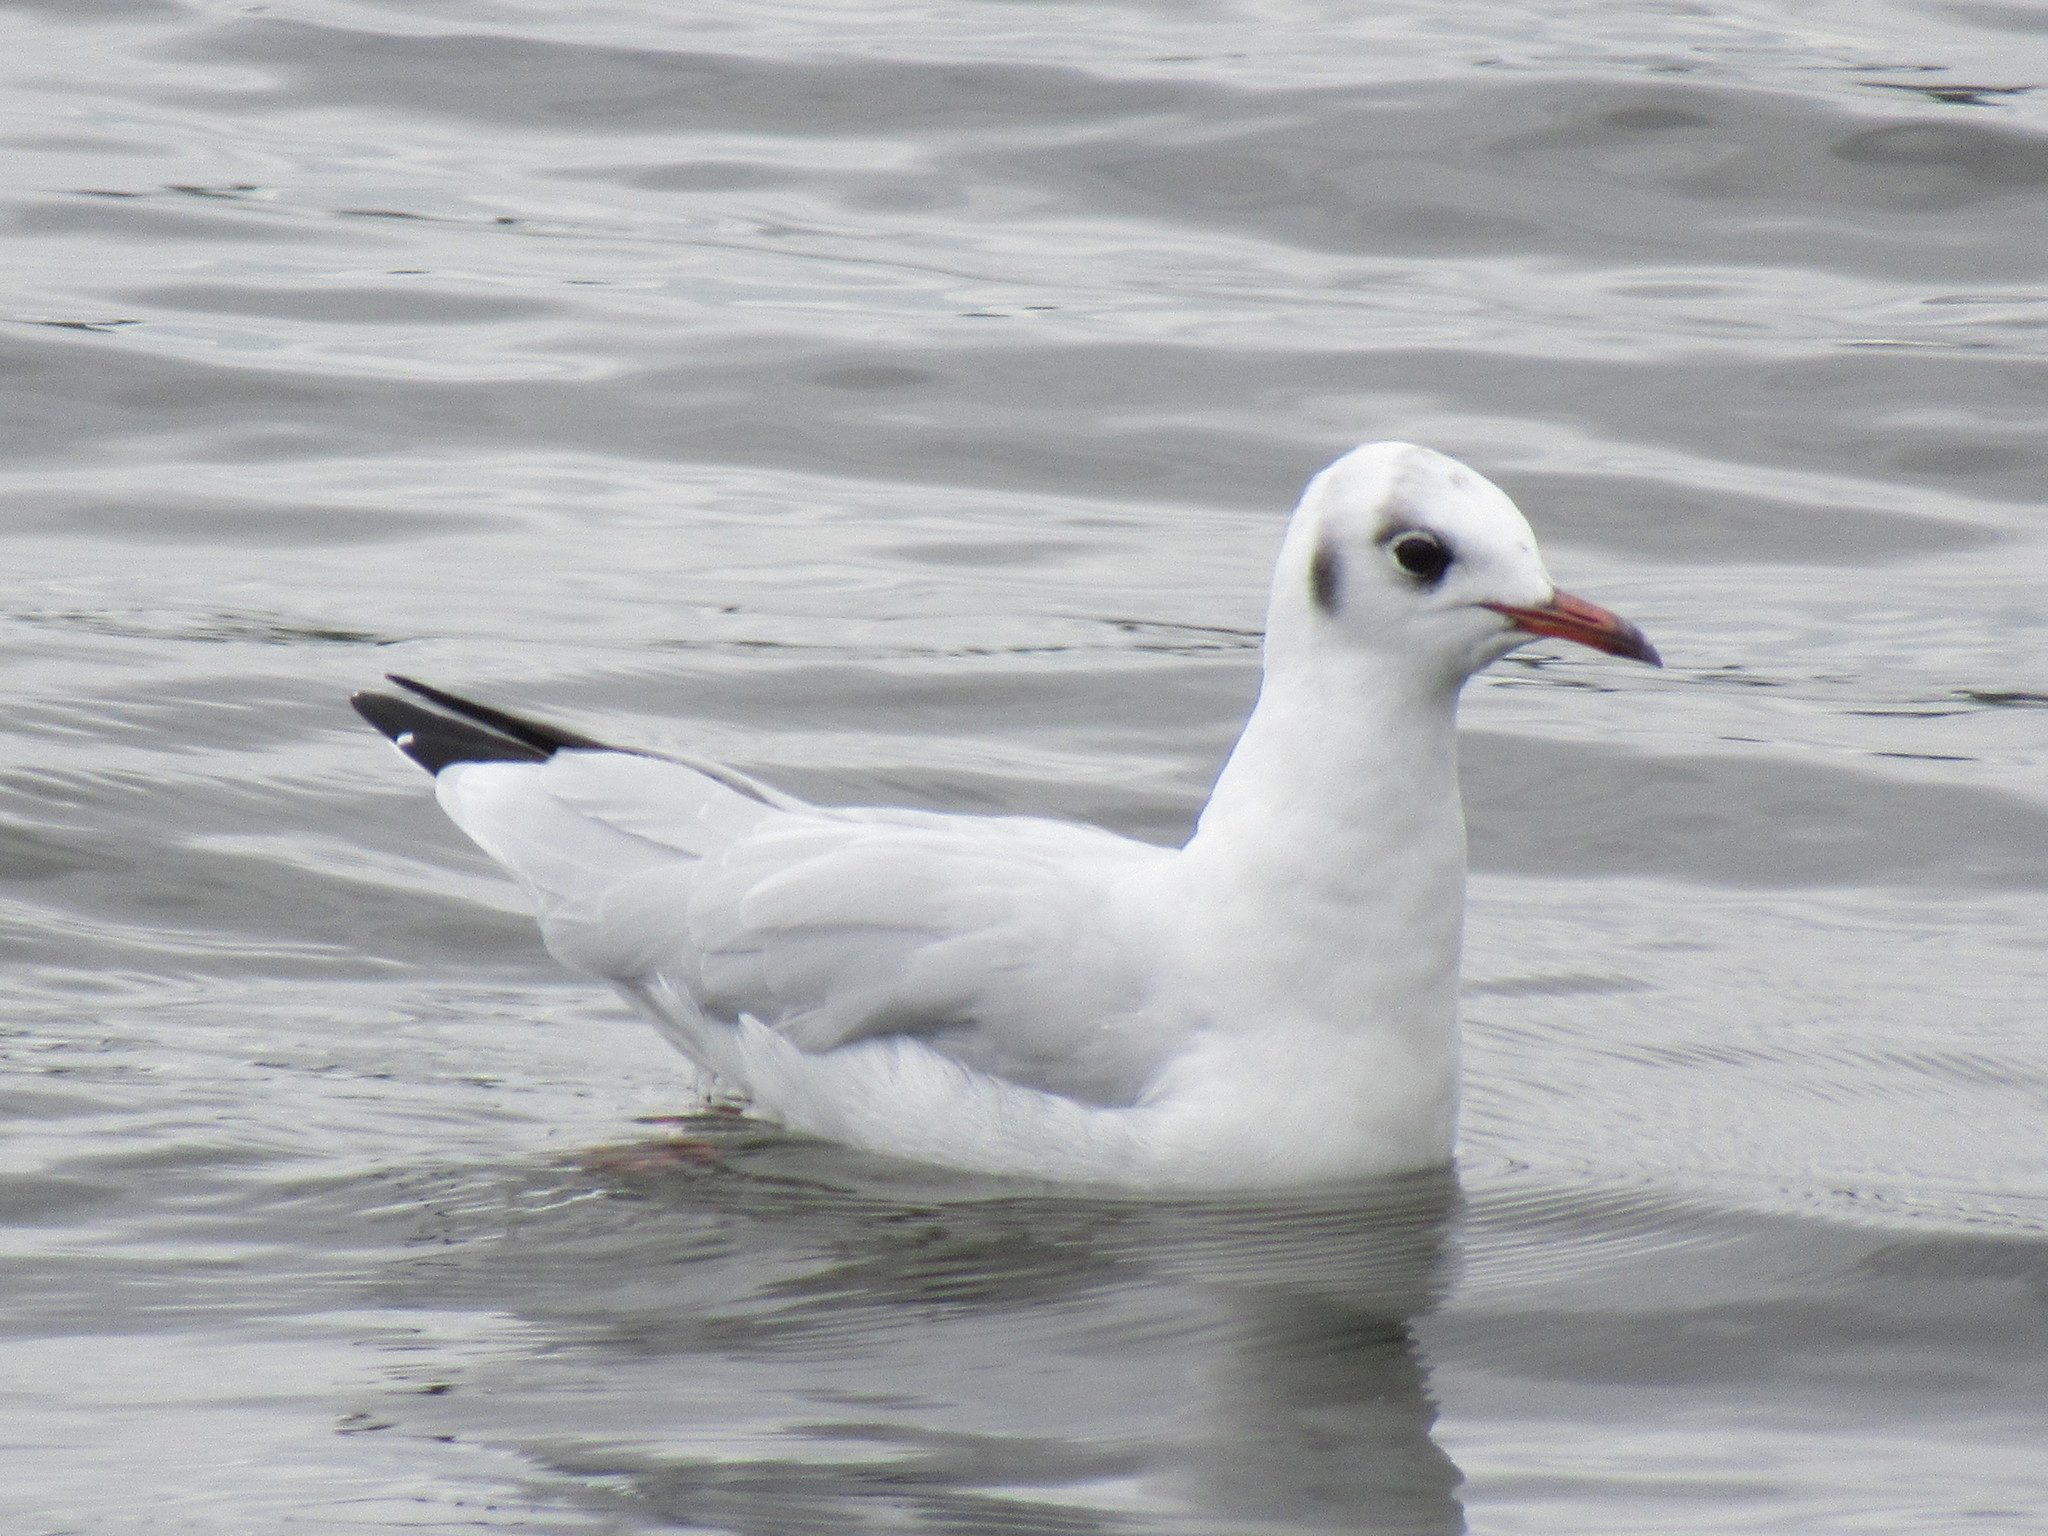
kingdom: Animalia
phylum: Chordata
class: Aves
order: Charadriiformes
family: Laridae
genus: Chroicocephalus
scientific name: Chroicocephalus ridibundus
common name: Black-headed gull
